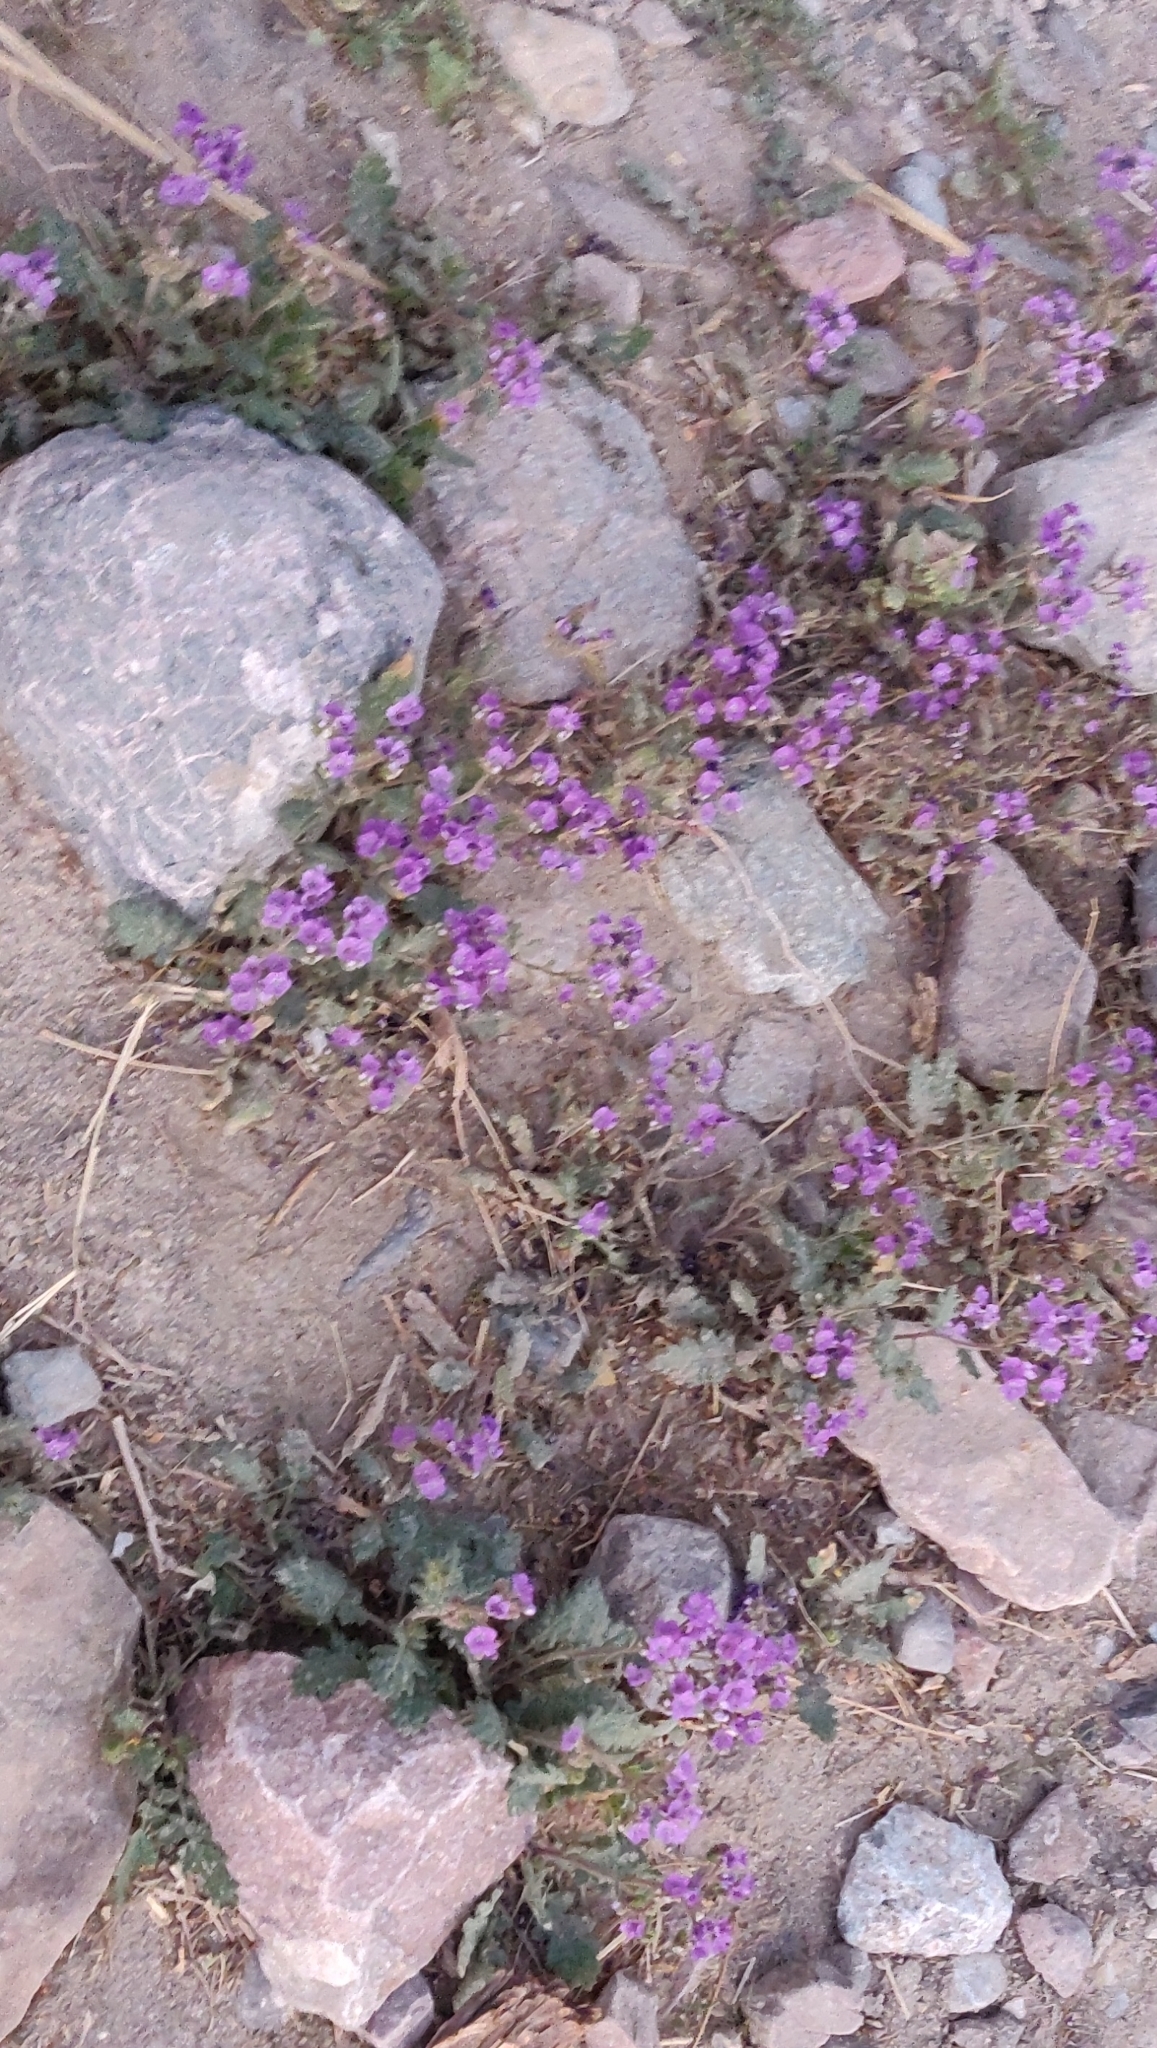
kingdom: Plantae
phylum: Tracheophyta
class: Magnoliopsida
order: Boraginales
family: Hydrophyllaceae
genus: Phacelia
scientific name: Phacelia crenulata
